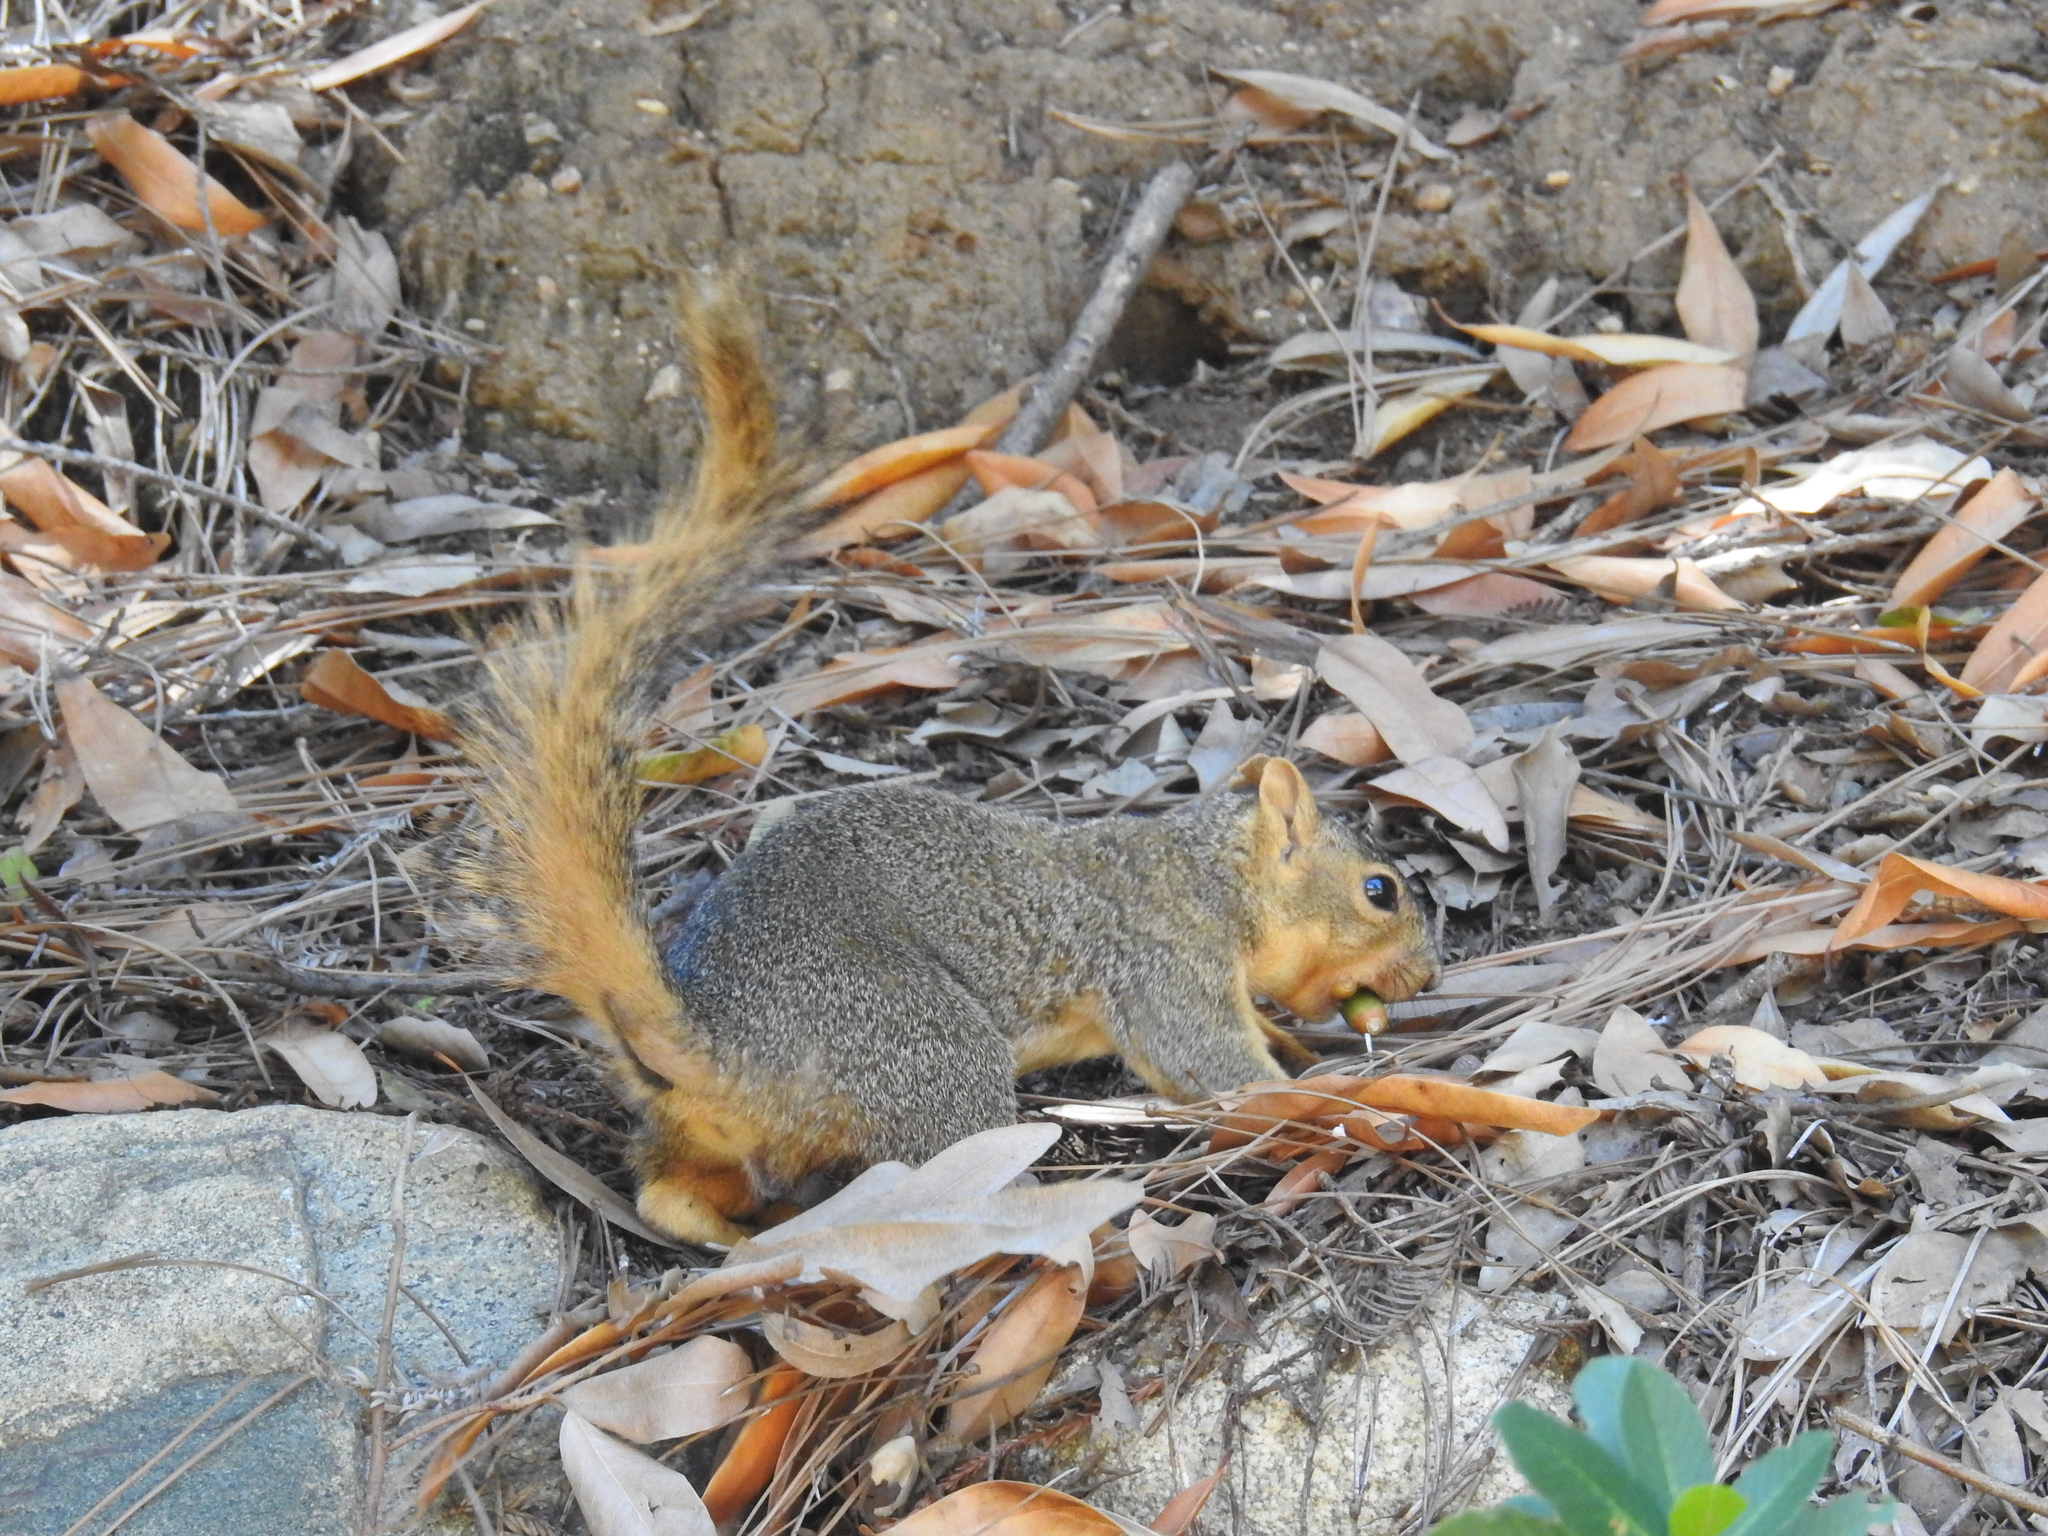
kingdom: Animalia
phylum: Chordata
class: Mammalia
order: Rodentia
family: Sciuridae
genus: Sciurus
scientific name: Sciurus niger
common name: Fox squirrel
